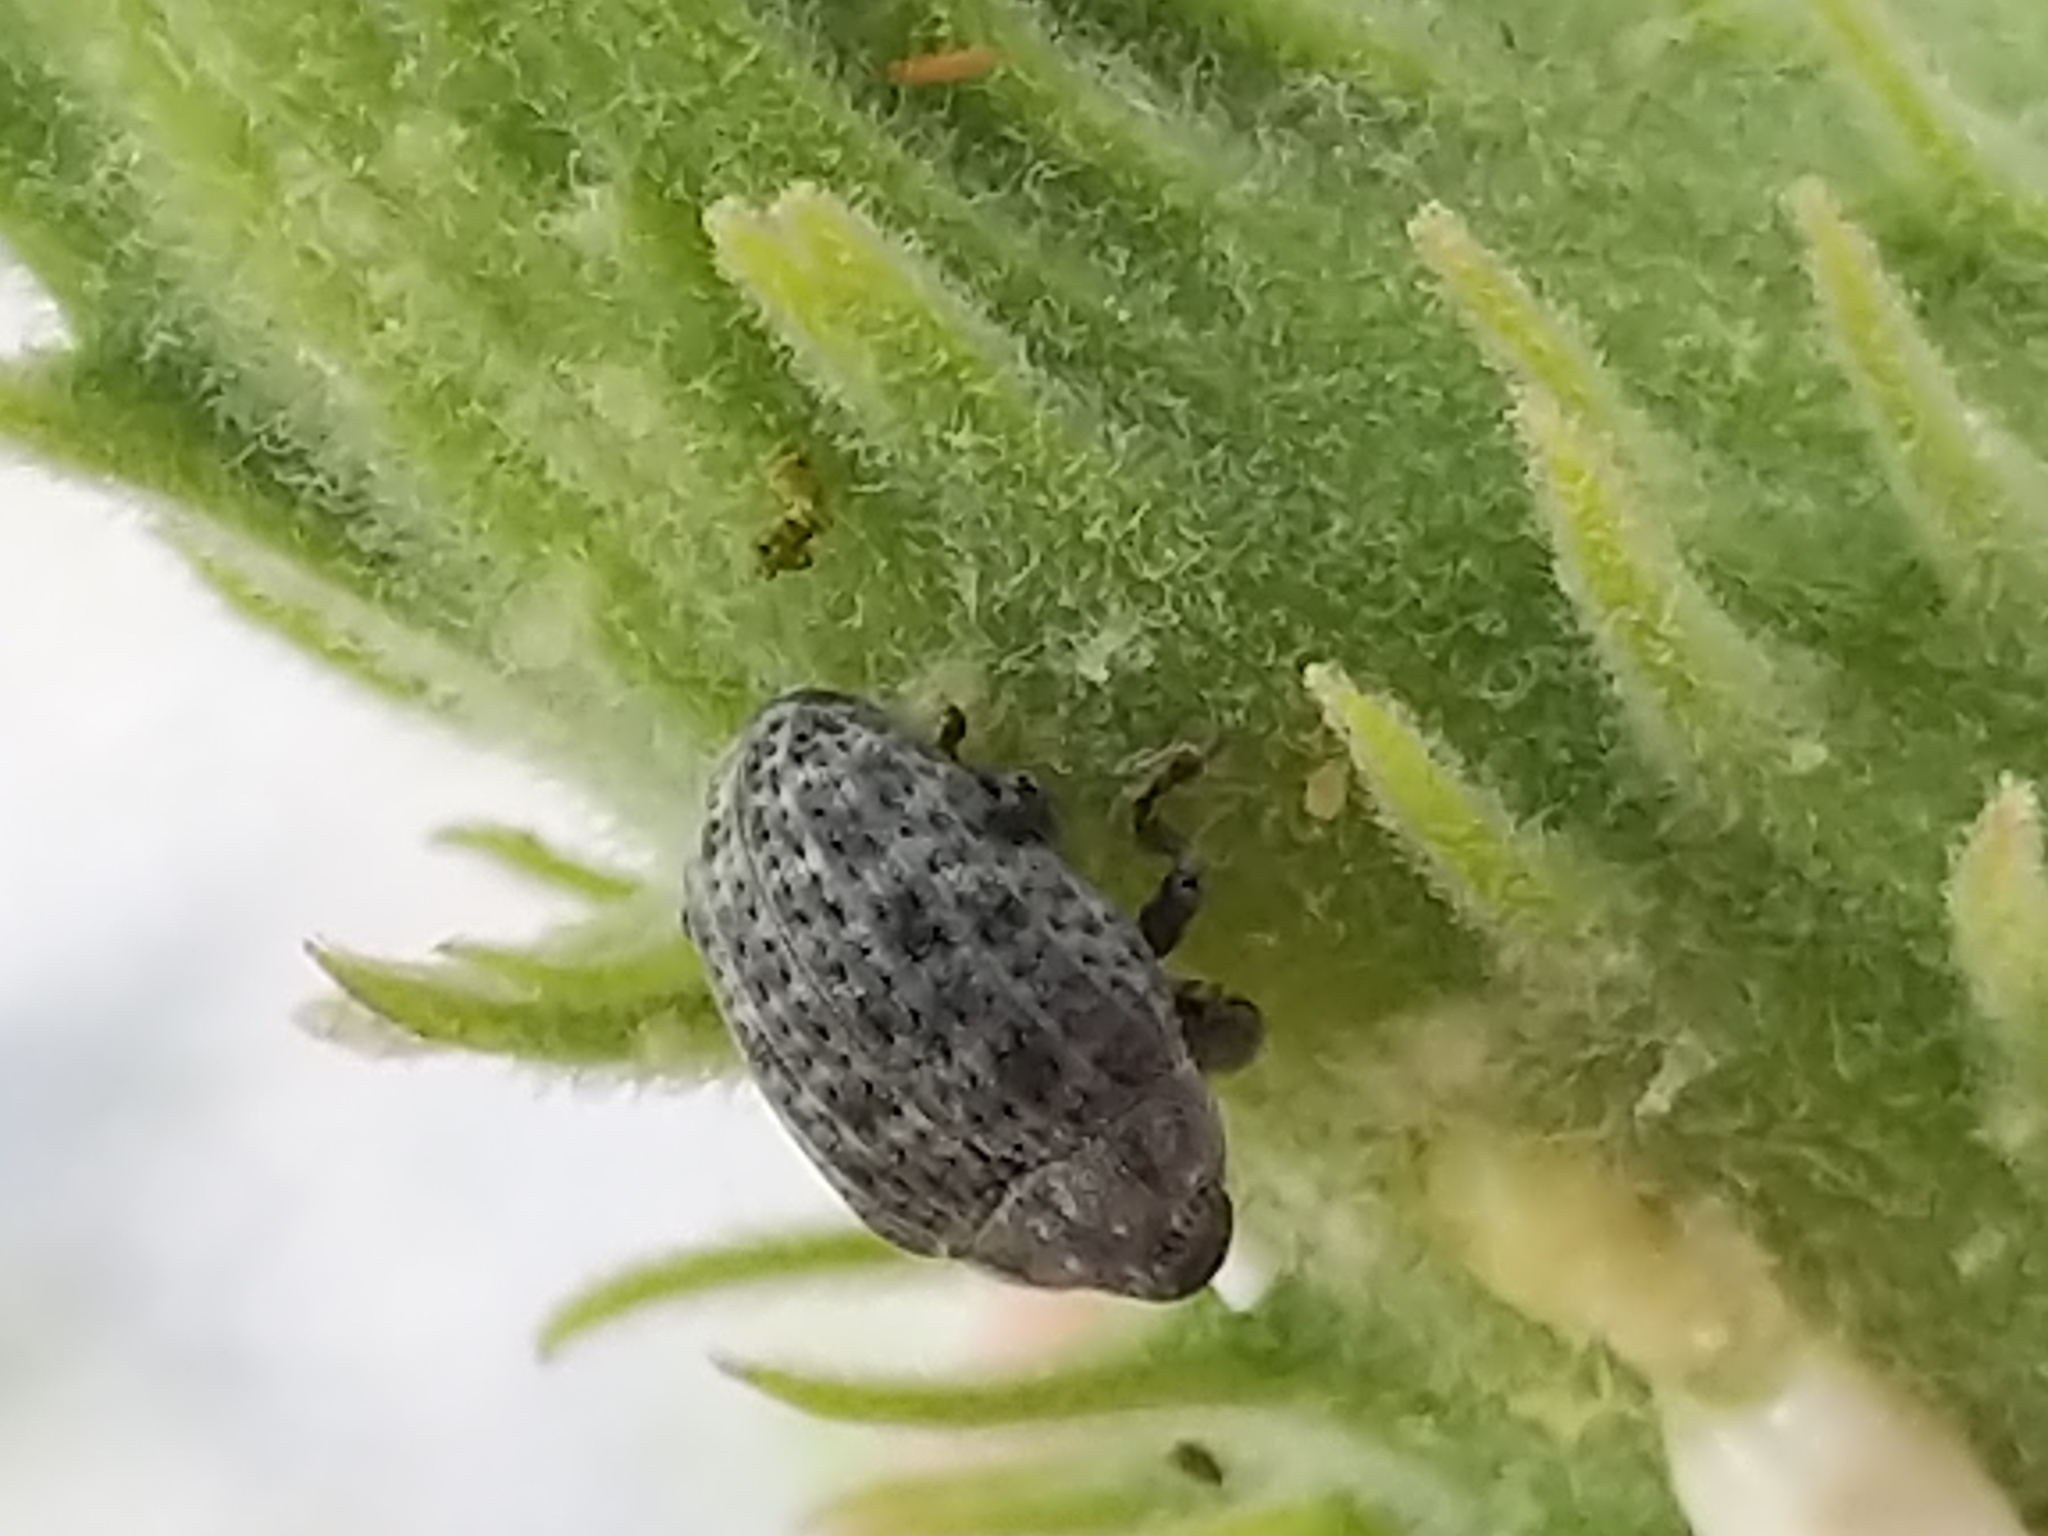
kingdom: Animalia
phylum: Arthropoda
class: Insecta
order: Coleoptera
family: Curculionidae
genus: Rhyssomatus
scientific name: Rhyssomatus lineaticollis
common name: Milkweed stem weevil
